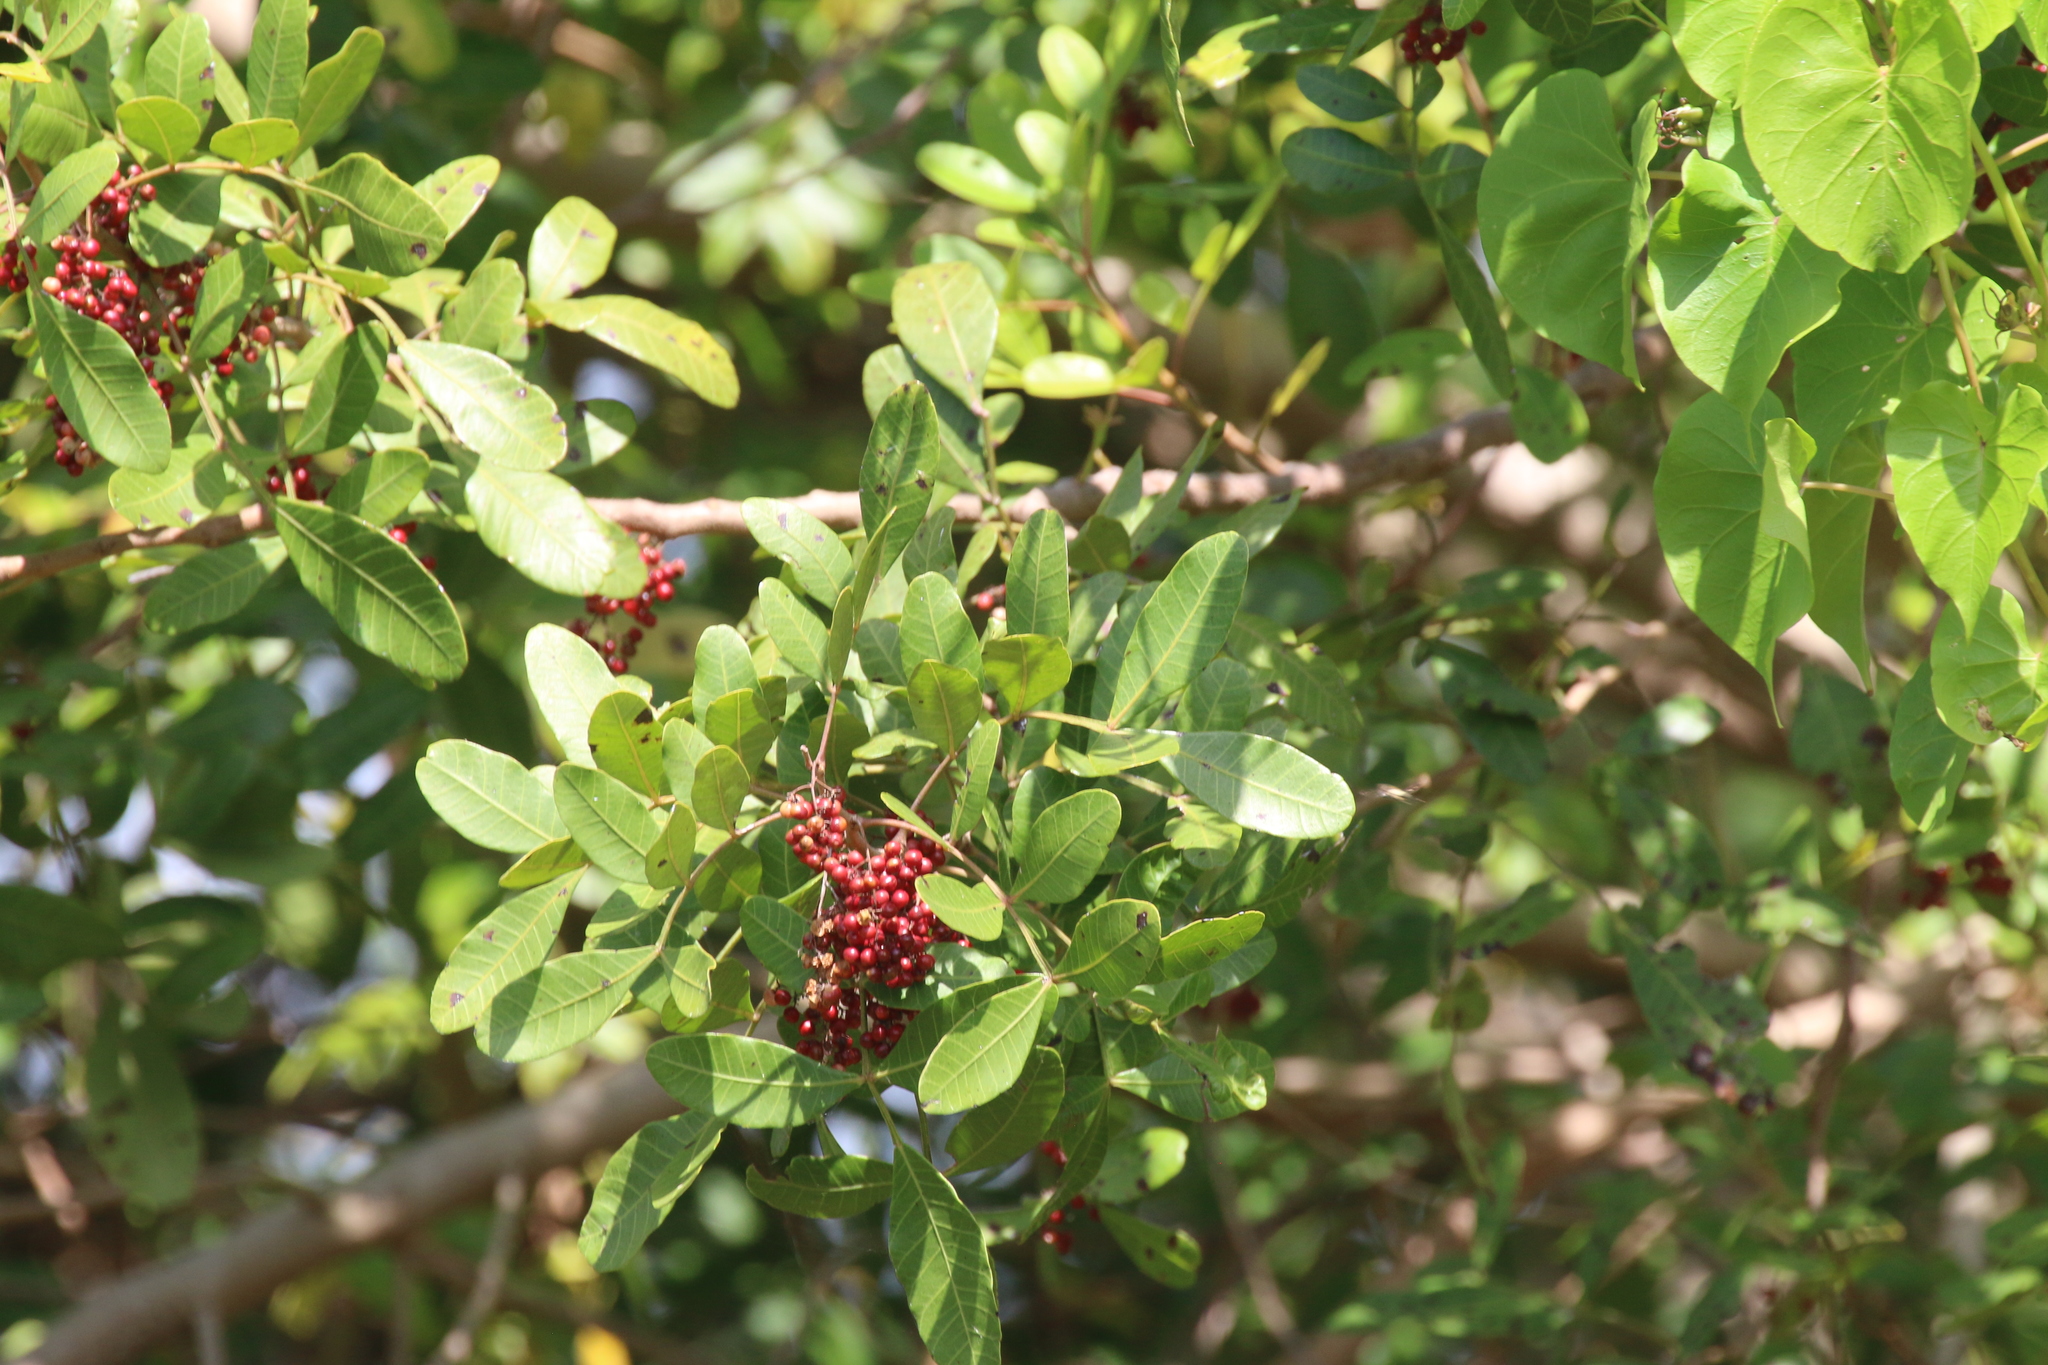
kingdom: Plantae
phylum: Tracheophyta
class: Magnoliopsida
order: Sapindales
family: Anacardiaceae
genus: Schinus
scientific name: Schinus terebinthifolia
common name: Brazilian peppertree
